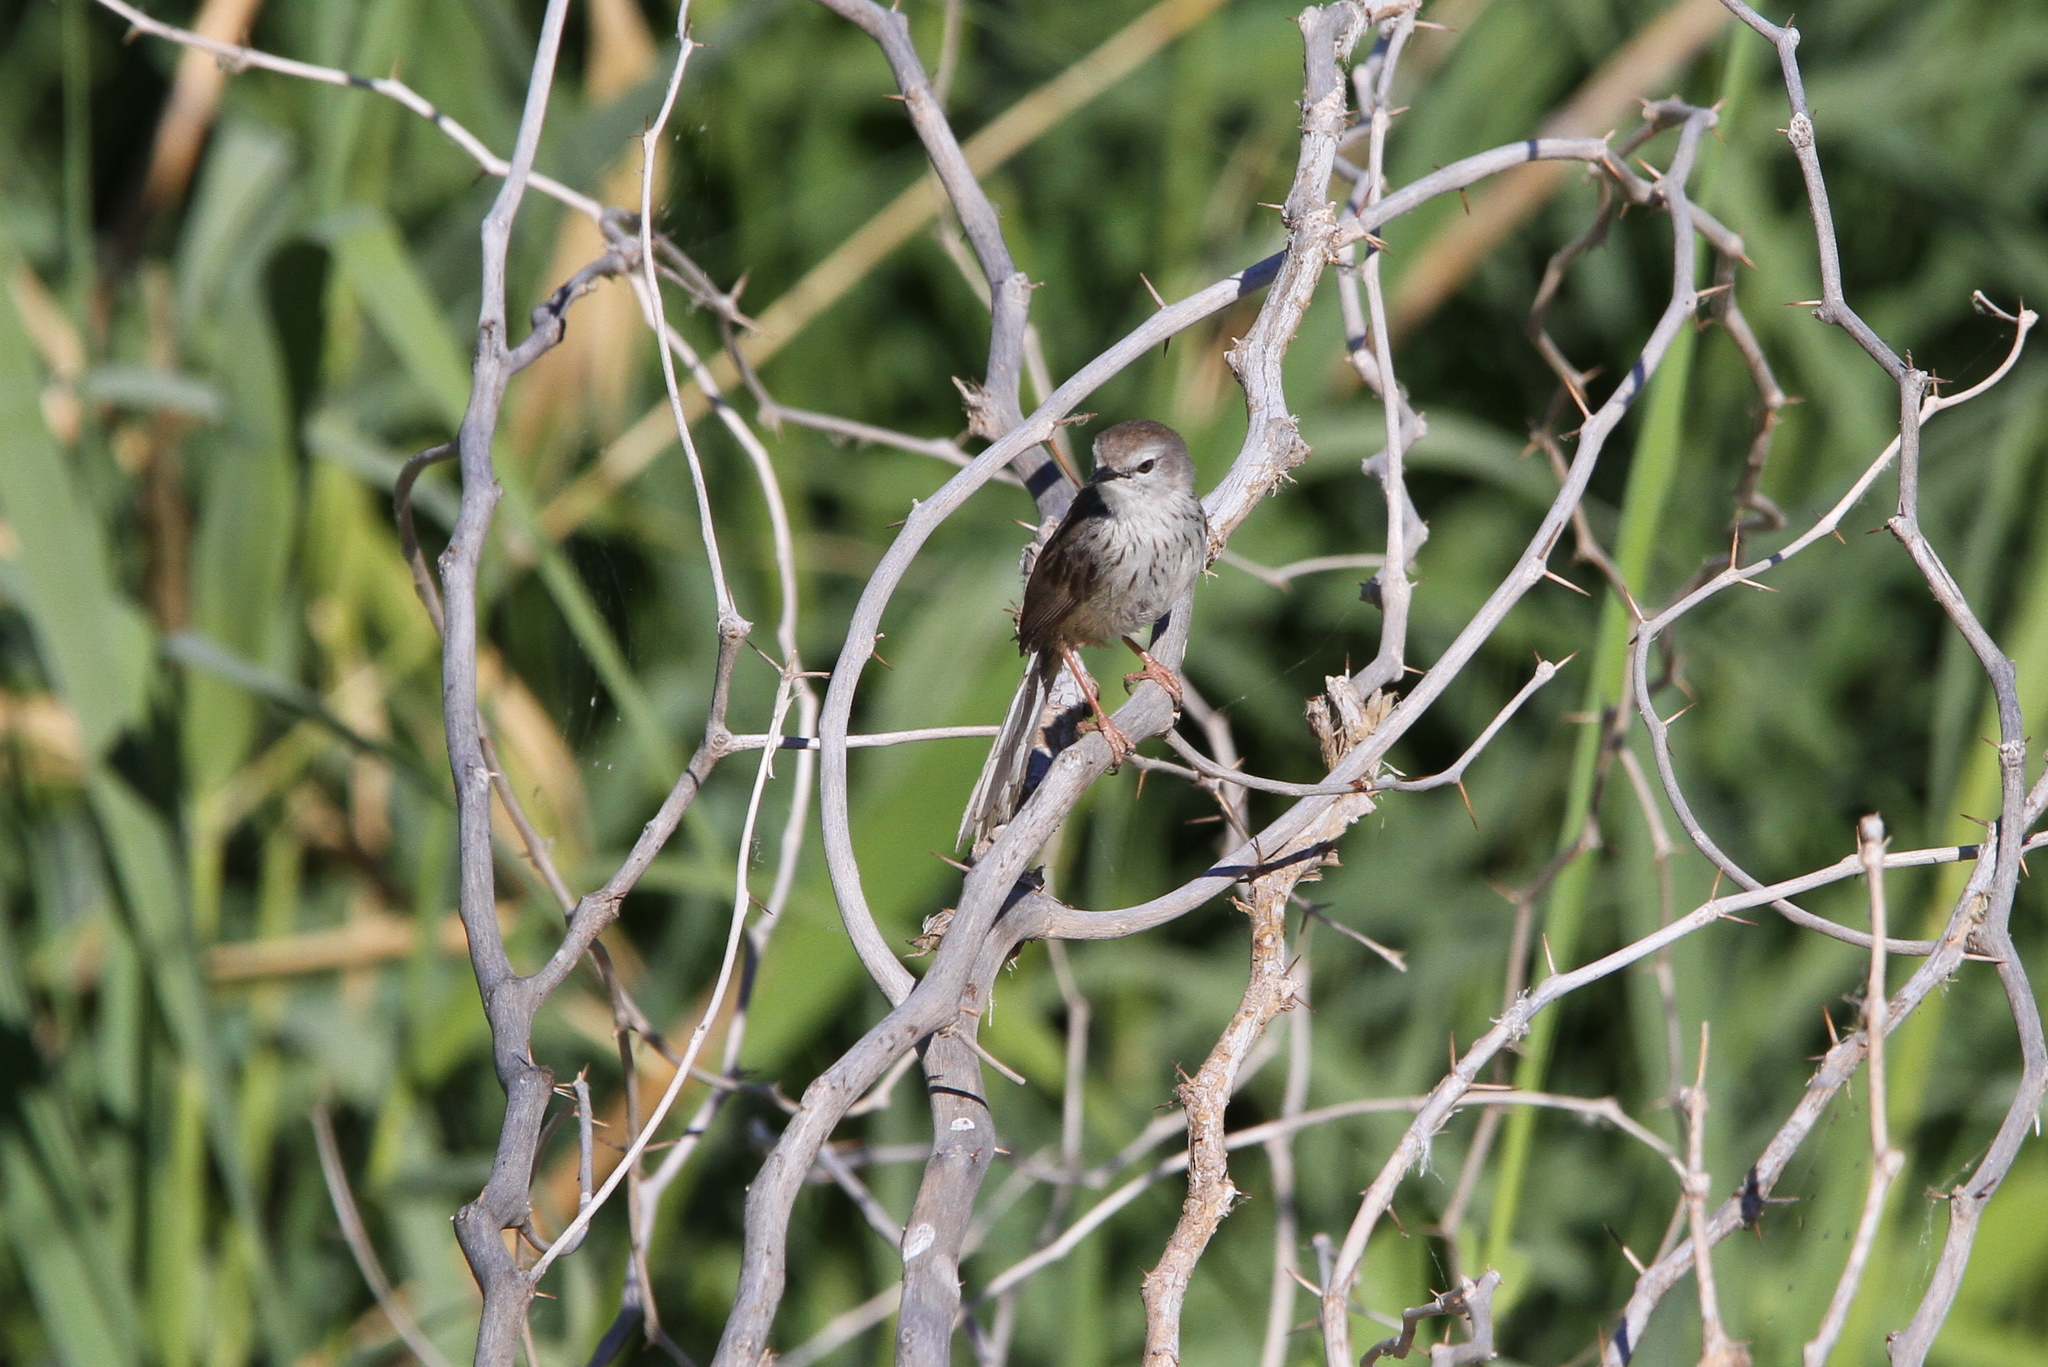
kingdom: Animalia
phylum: Chordata
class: Aves
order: Passeriformes
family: Cisticolidae
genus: Phragmacia
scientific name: Phragmacia substriata
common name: Namaqua warbler
